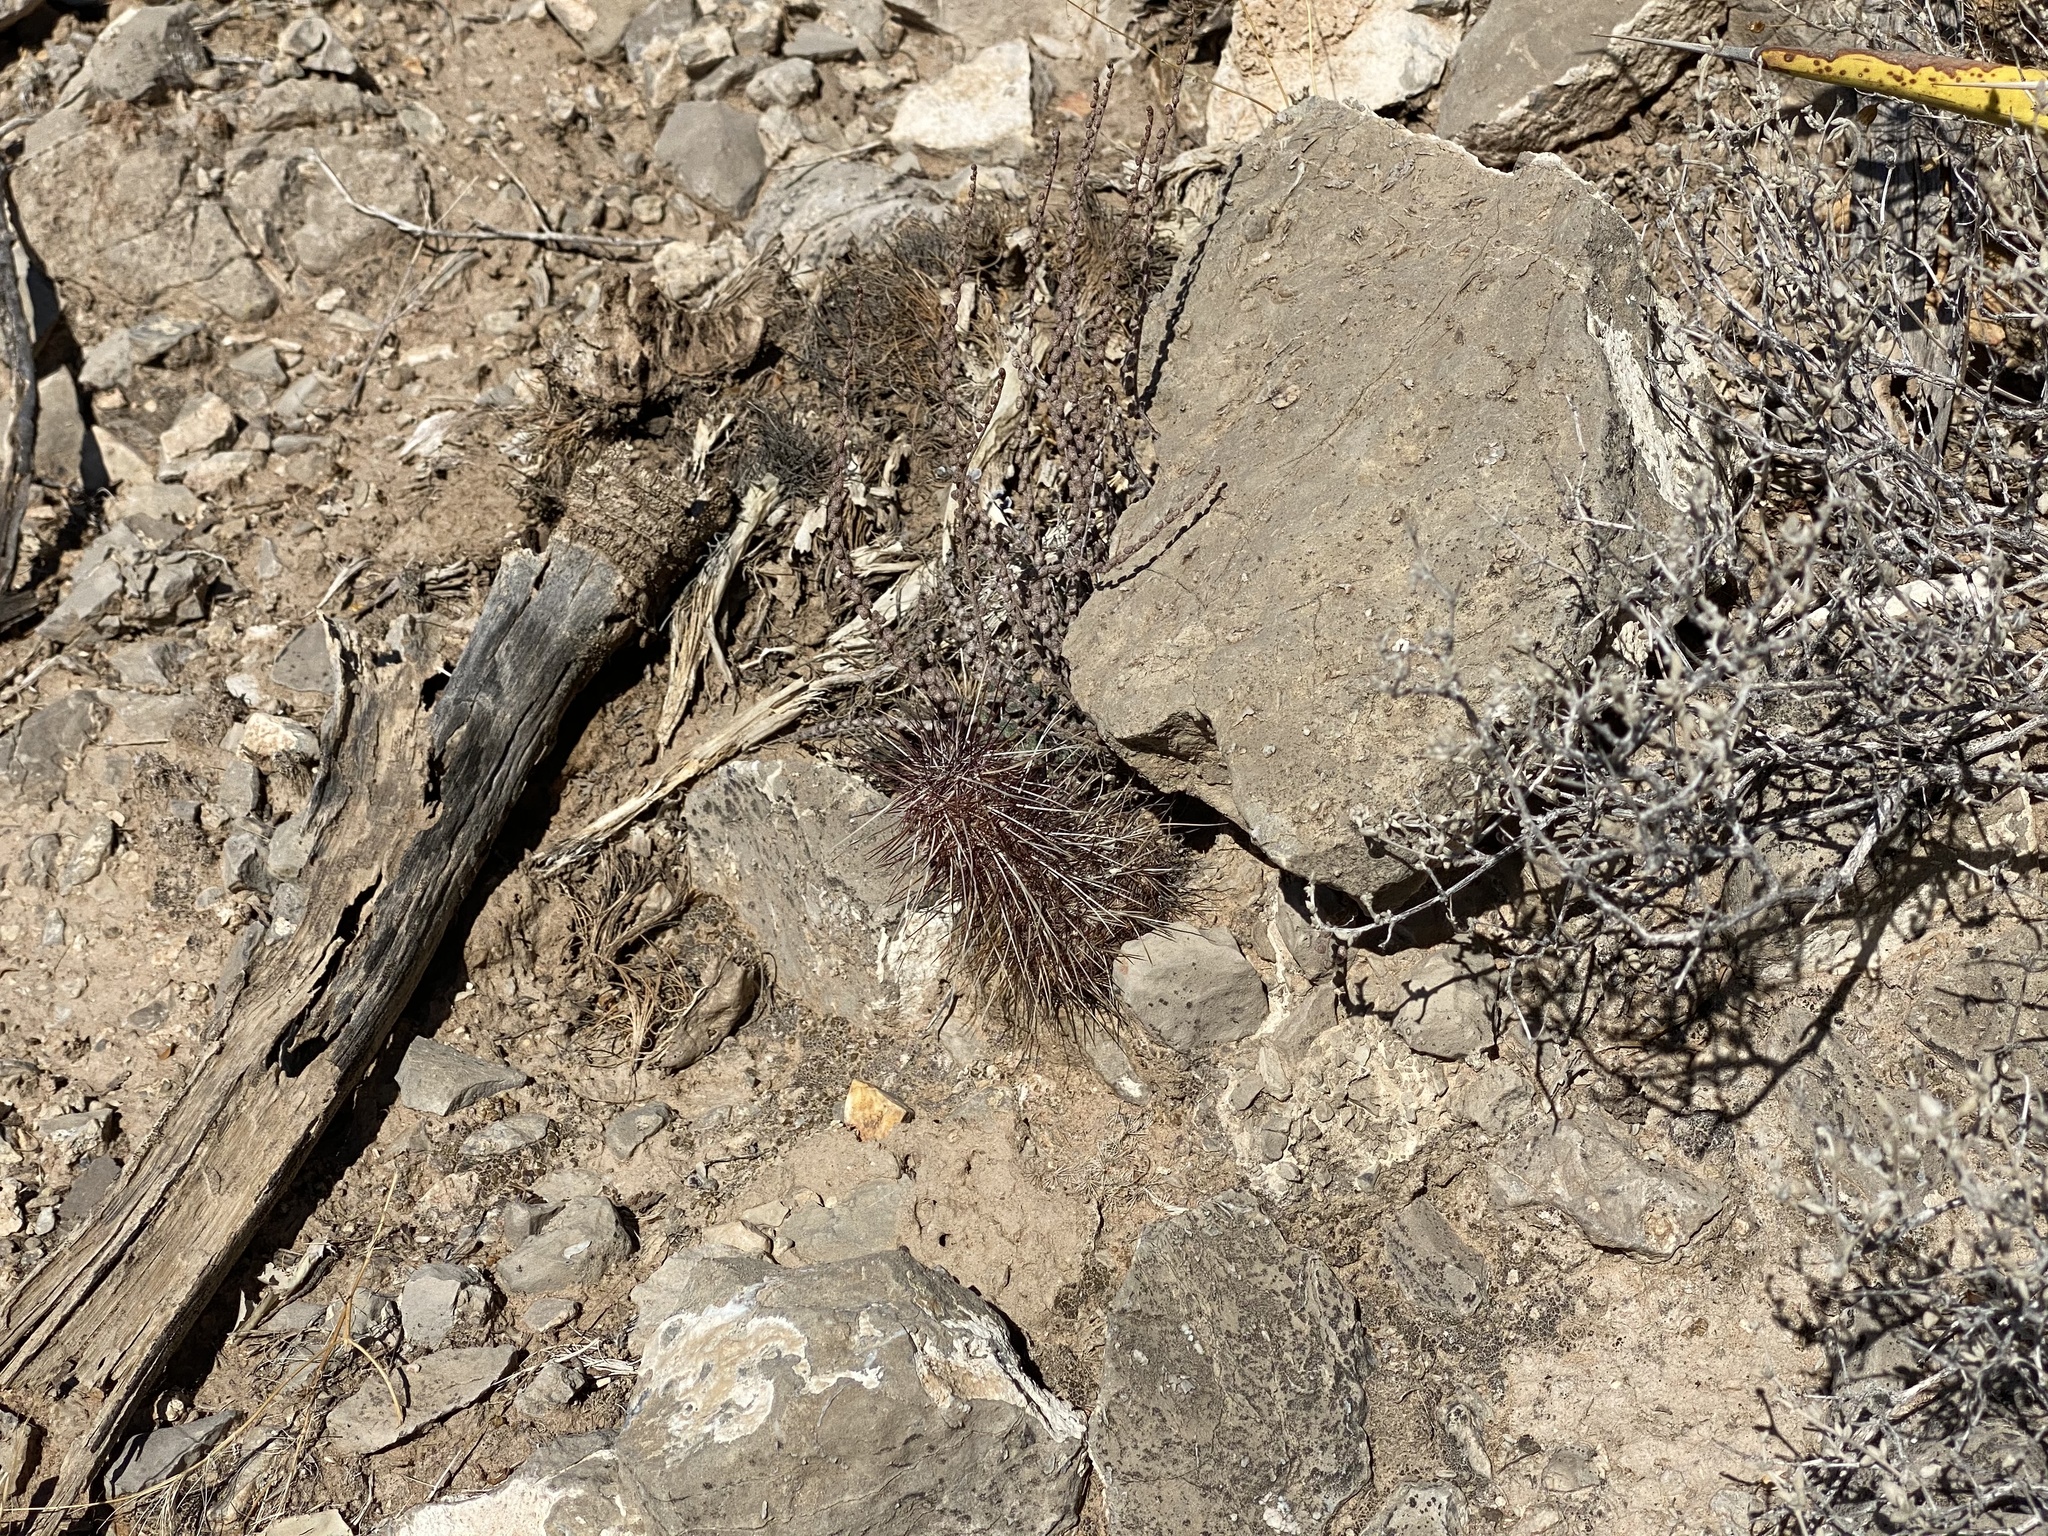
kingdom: Plantae
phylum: Tracheophyta
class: Magnoliopsida
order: Caryophyllales
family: Cactaceae
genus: Echinocereus
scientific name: Echinocereus viridiflorus
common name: Nylon hedgehog cactus
